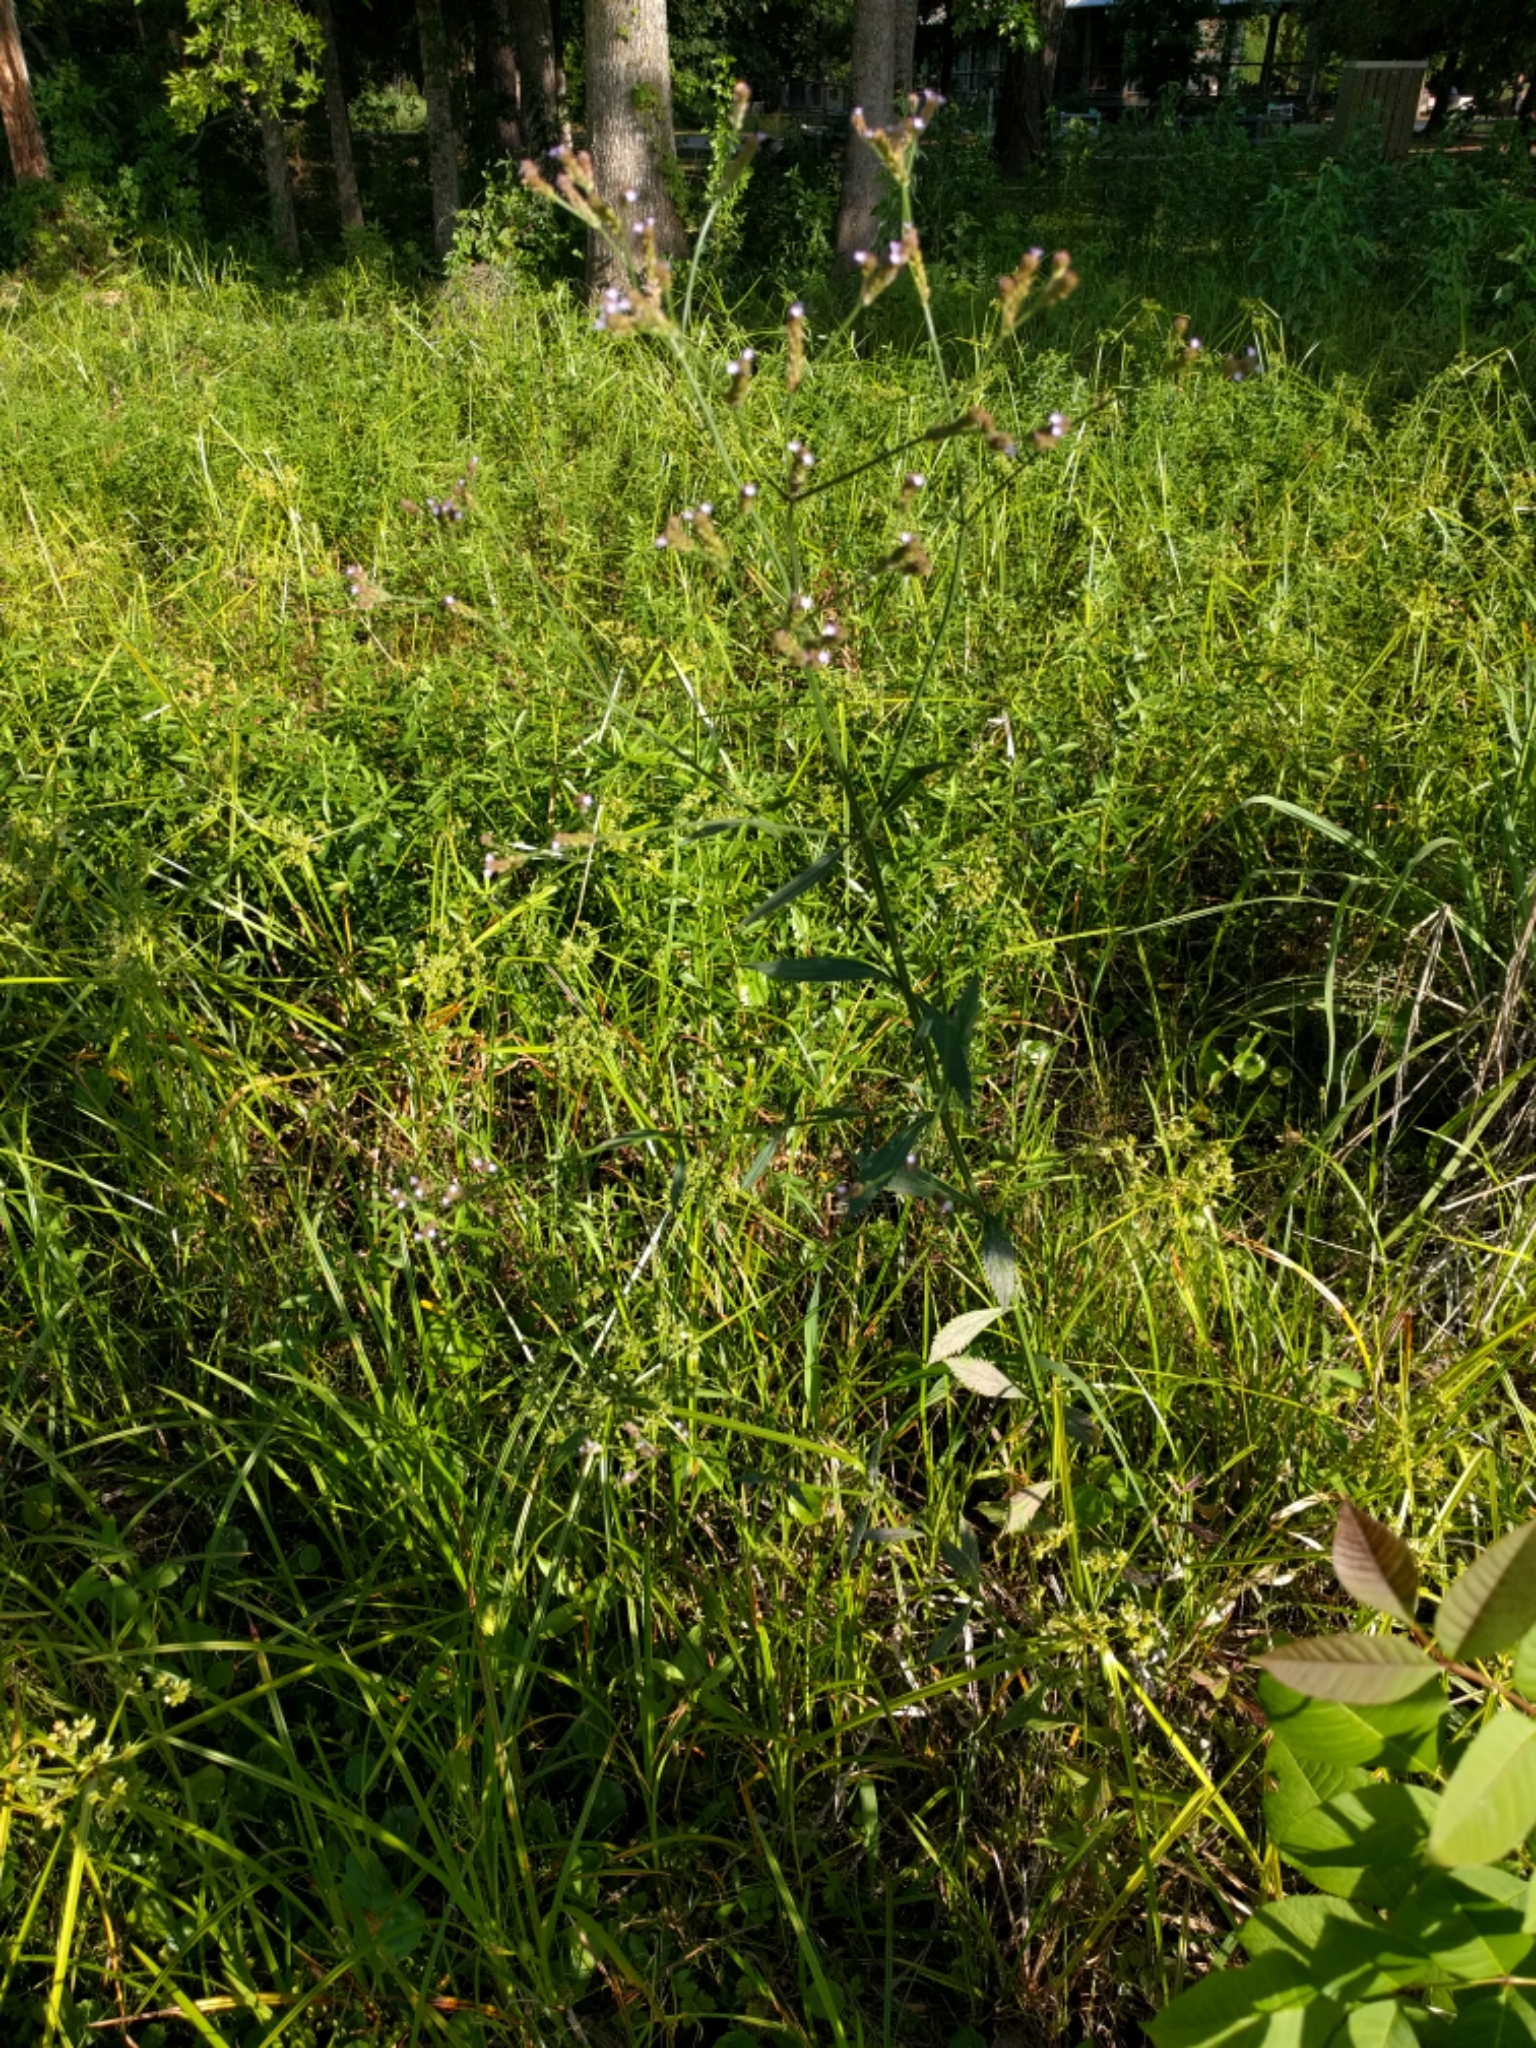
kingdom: Plantae
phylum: Tracheophyta
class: Magnoliopsida
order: Lamiales
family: Verbenaceae
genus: Verbena
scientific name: Verbena brasiliensis
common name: Brazilian vervain
